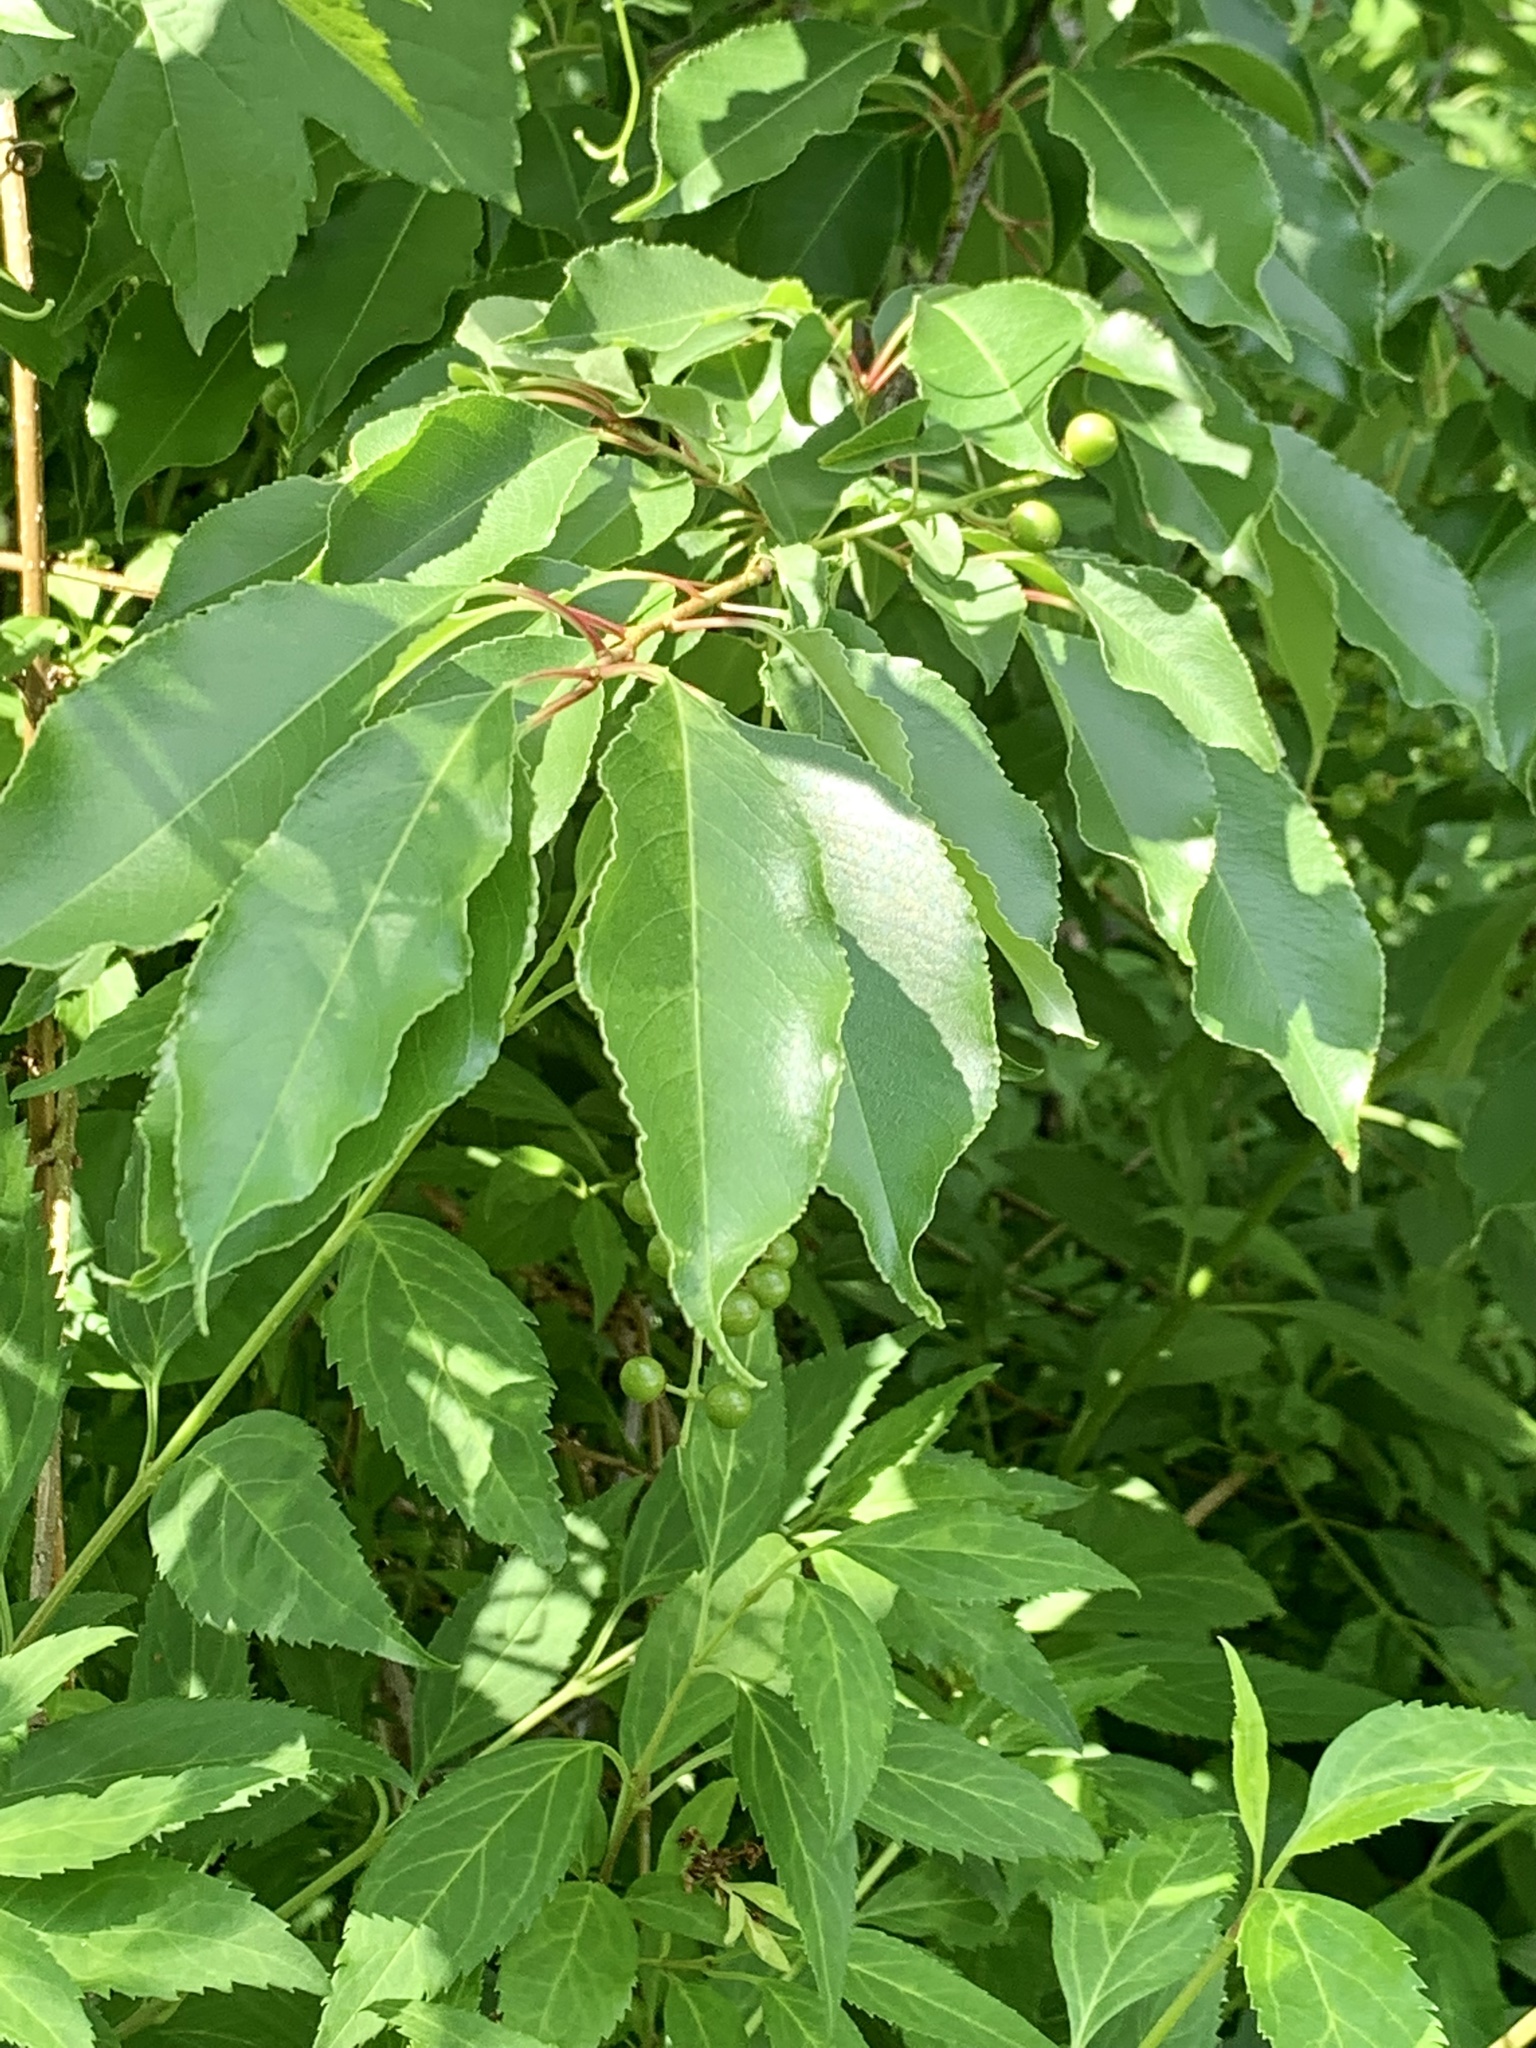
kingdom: Plantae
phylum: Tracheophyta
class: Magnoliopsida
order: Rosales
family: Rosaceae
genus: Prunus
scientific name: Prunus serotina
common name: Black cherry
